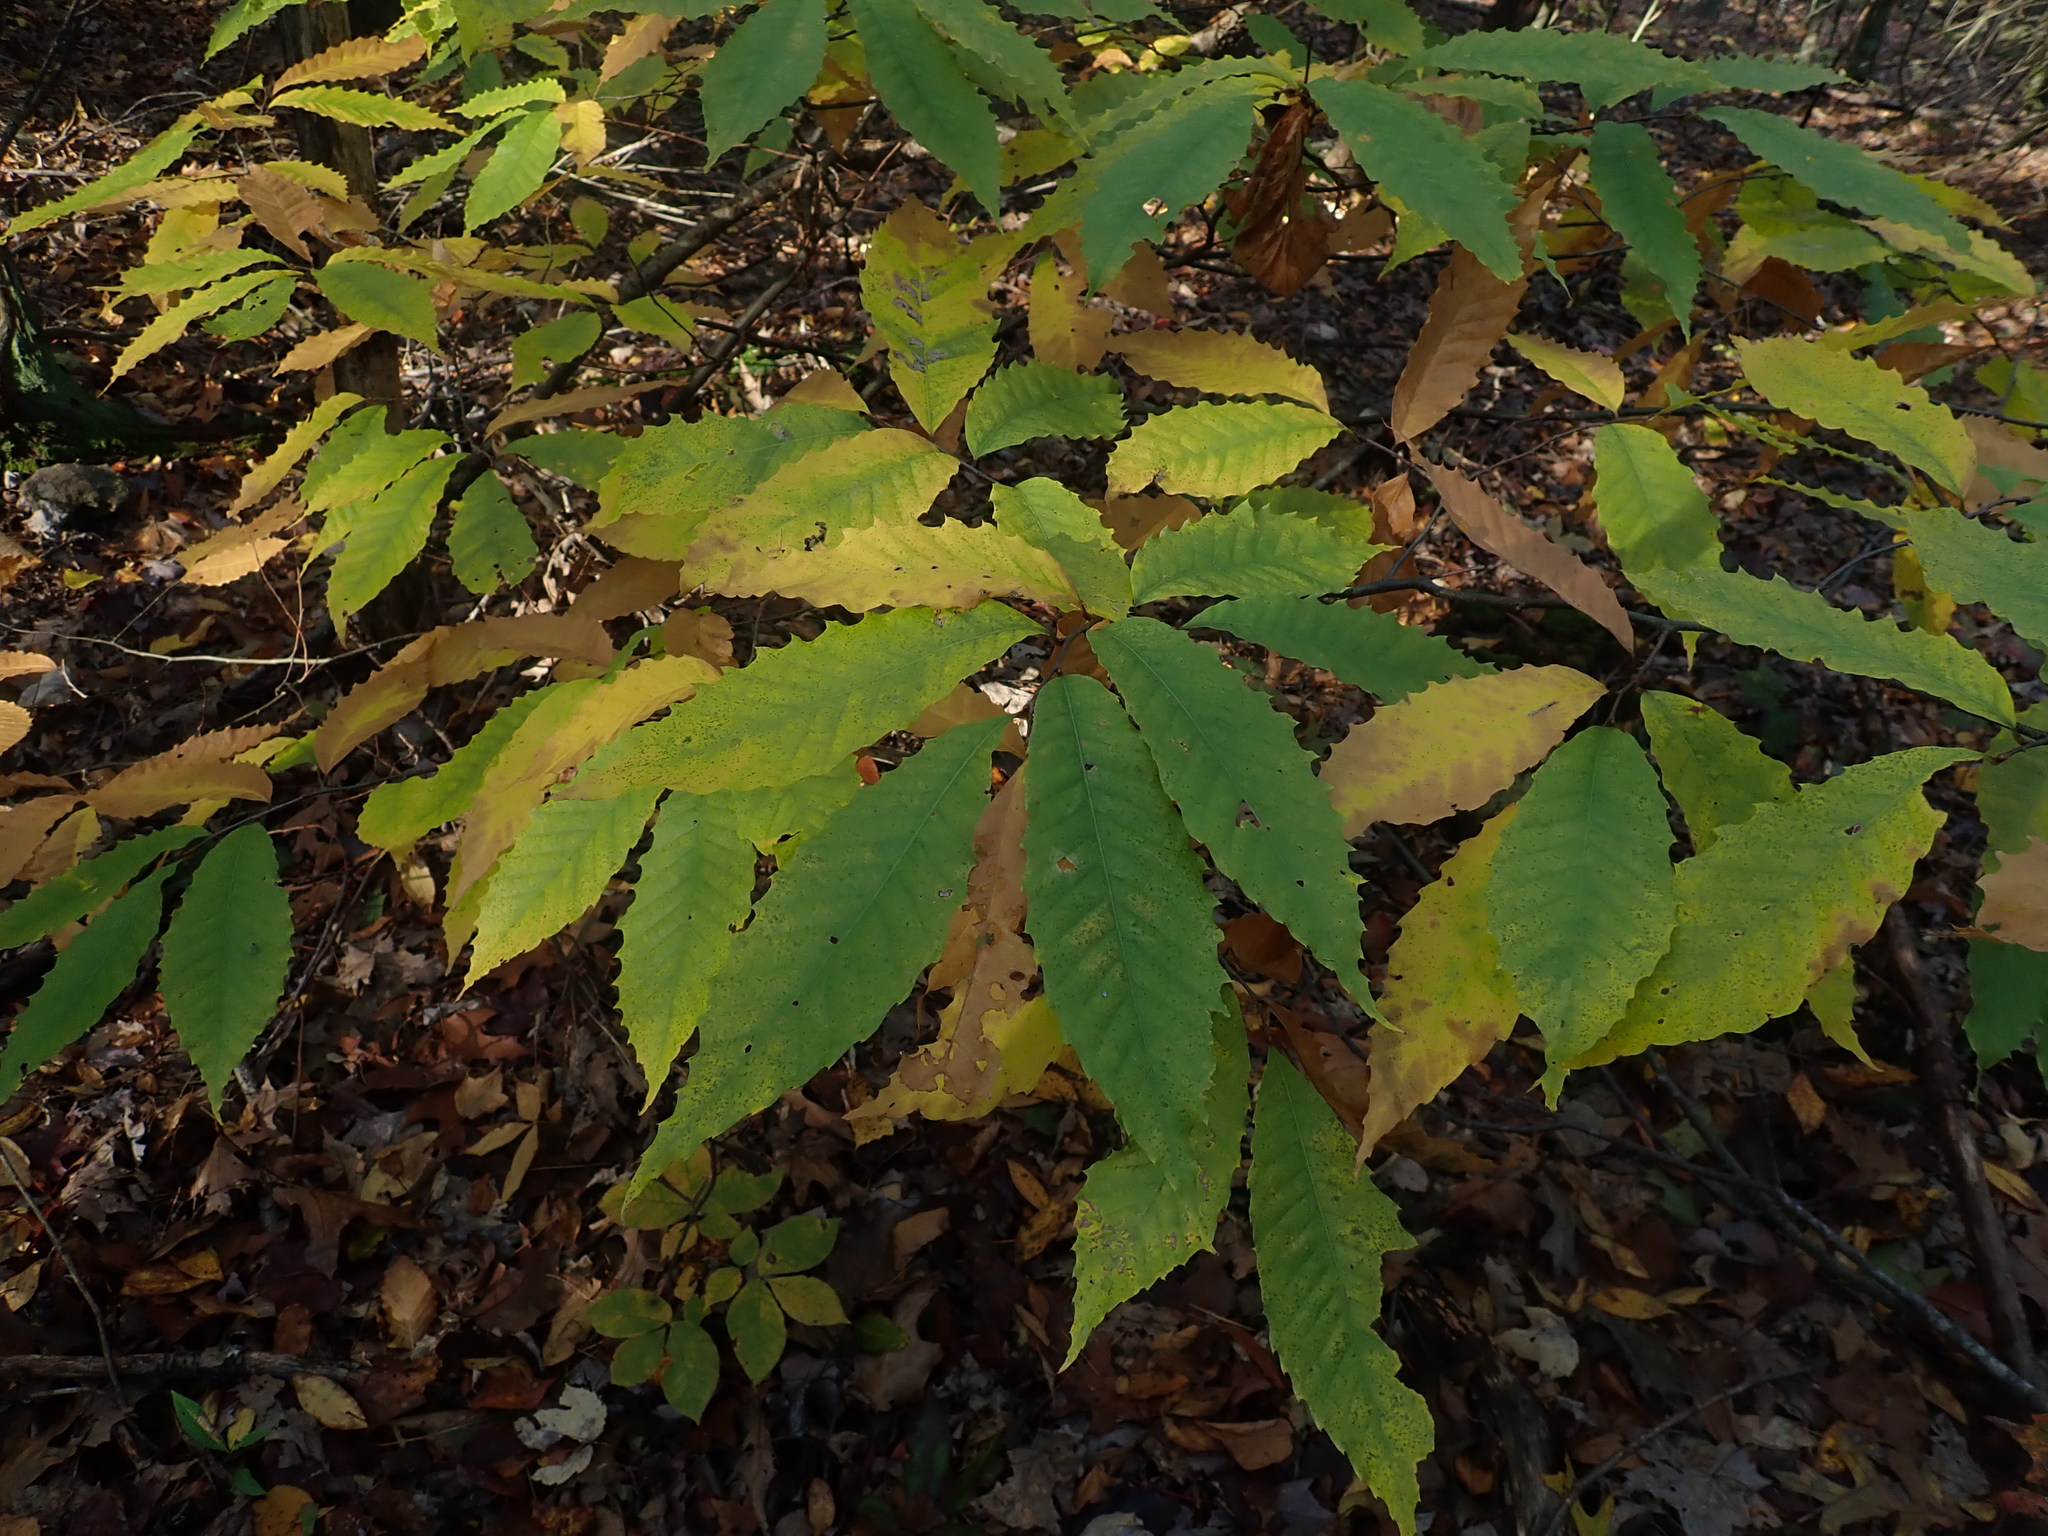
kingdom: Plantae
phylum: Tracheophyta
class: Magnoliopsida
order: Fagales
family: Fagaceae
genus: Castanea
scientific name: Castanea dentata
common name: American chestnut
